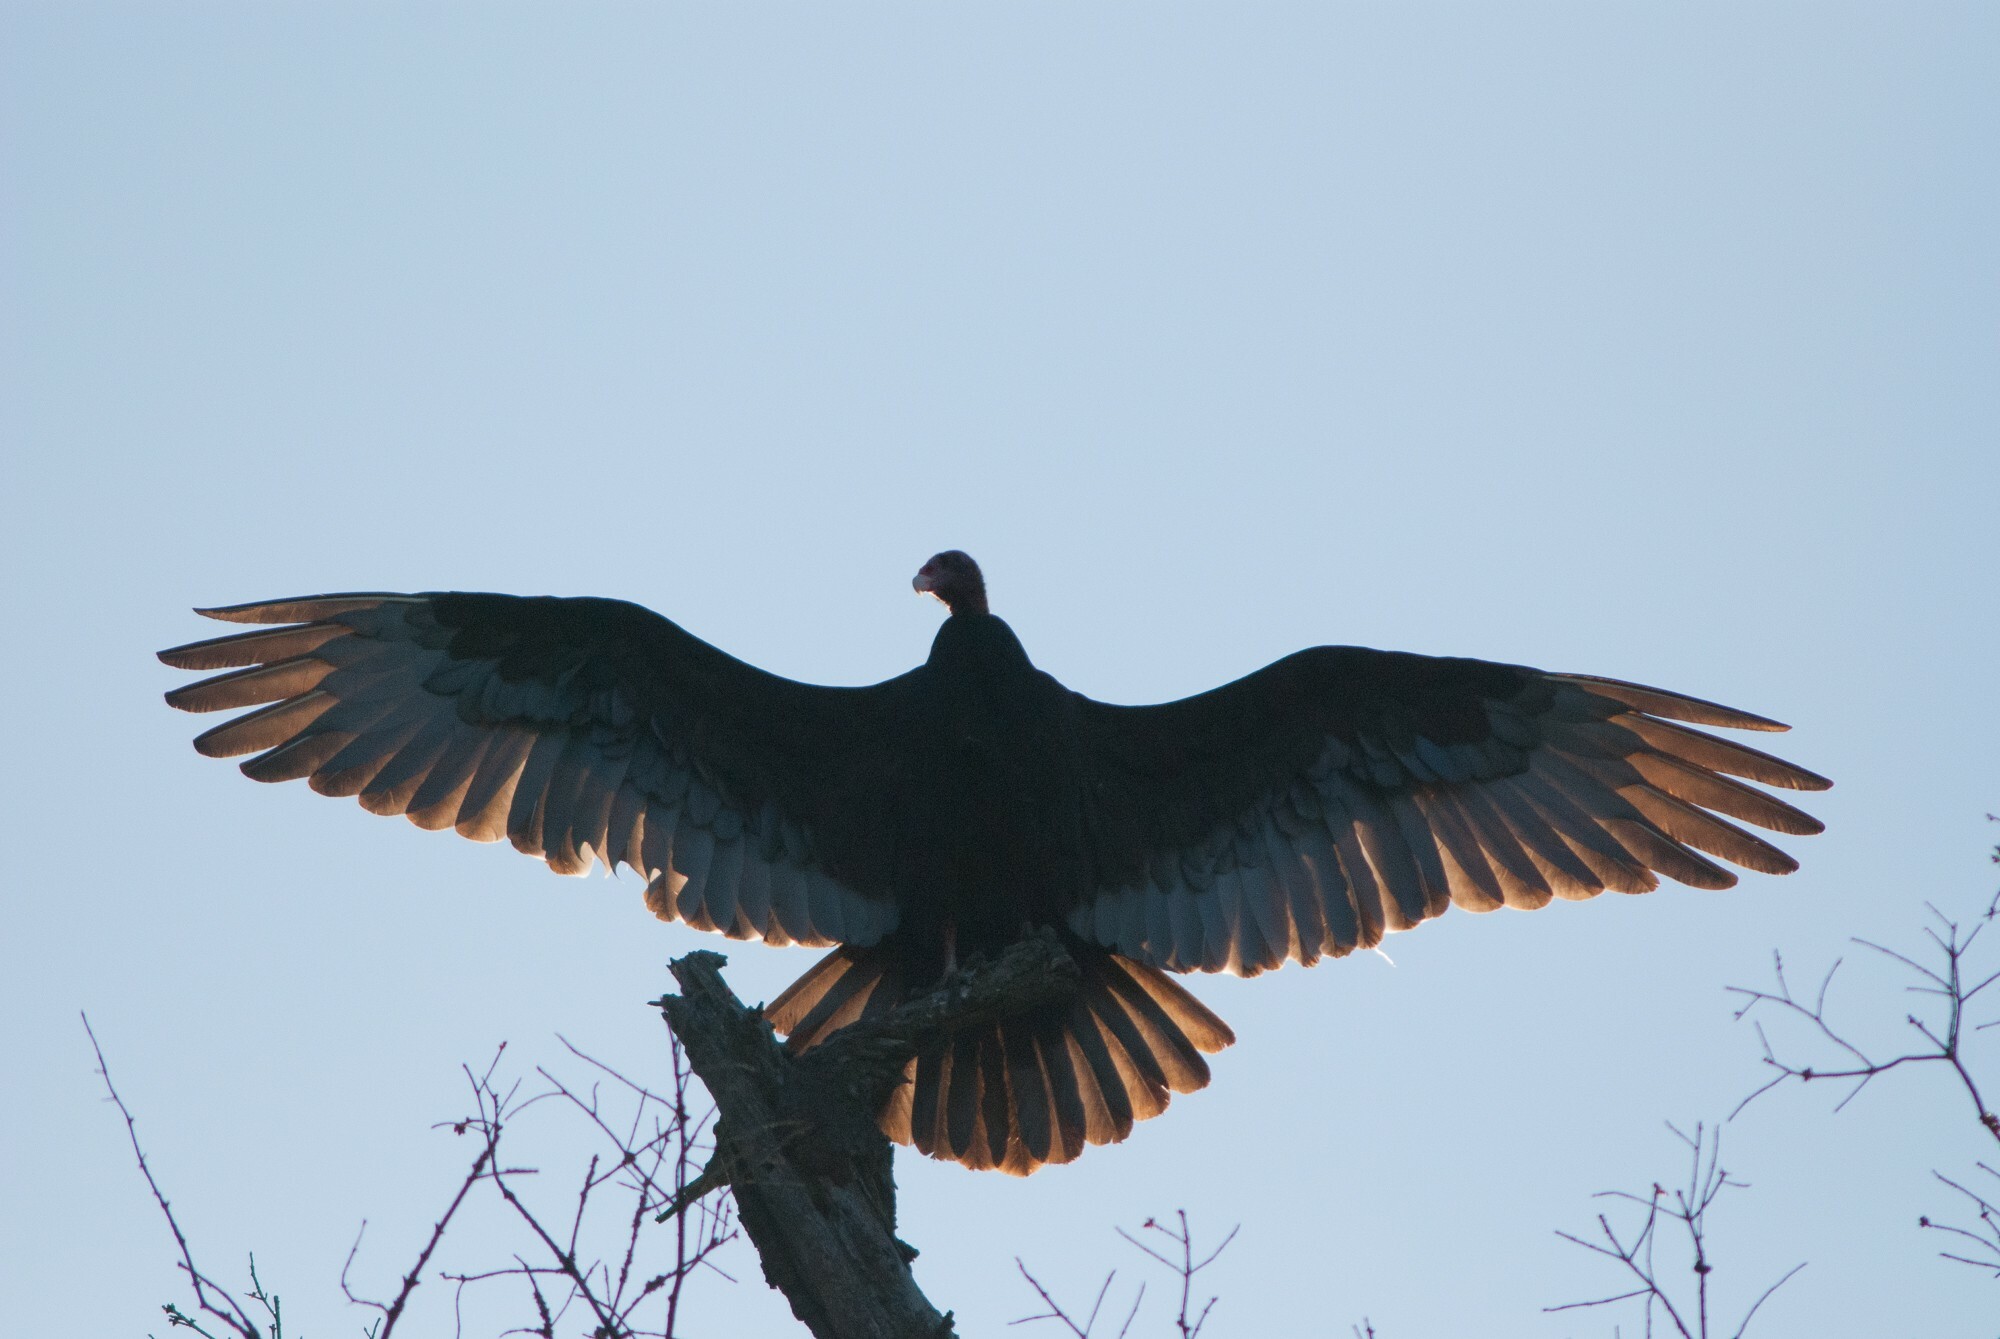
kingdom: Animalia
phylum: Chordata
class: Aves
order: Accipitriformes
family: Cathartidae
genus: Cathartes
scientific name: Cathartes aura
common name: Turkey vulture
